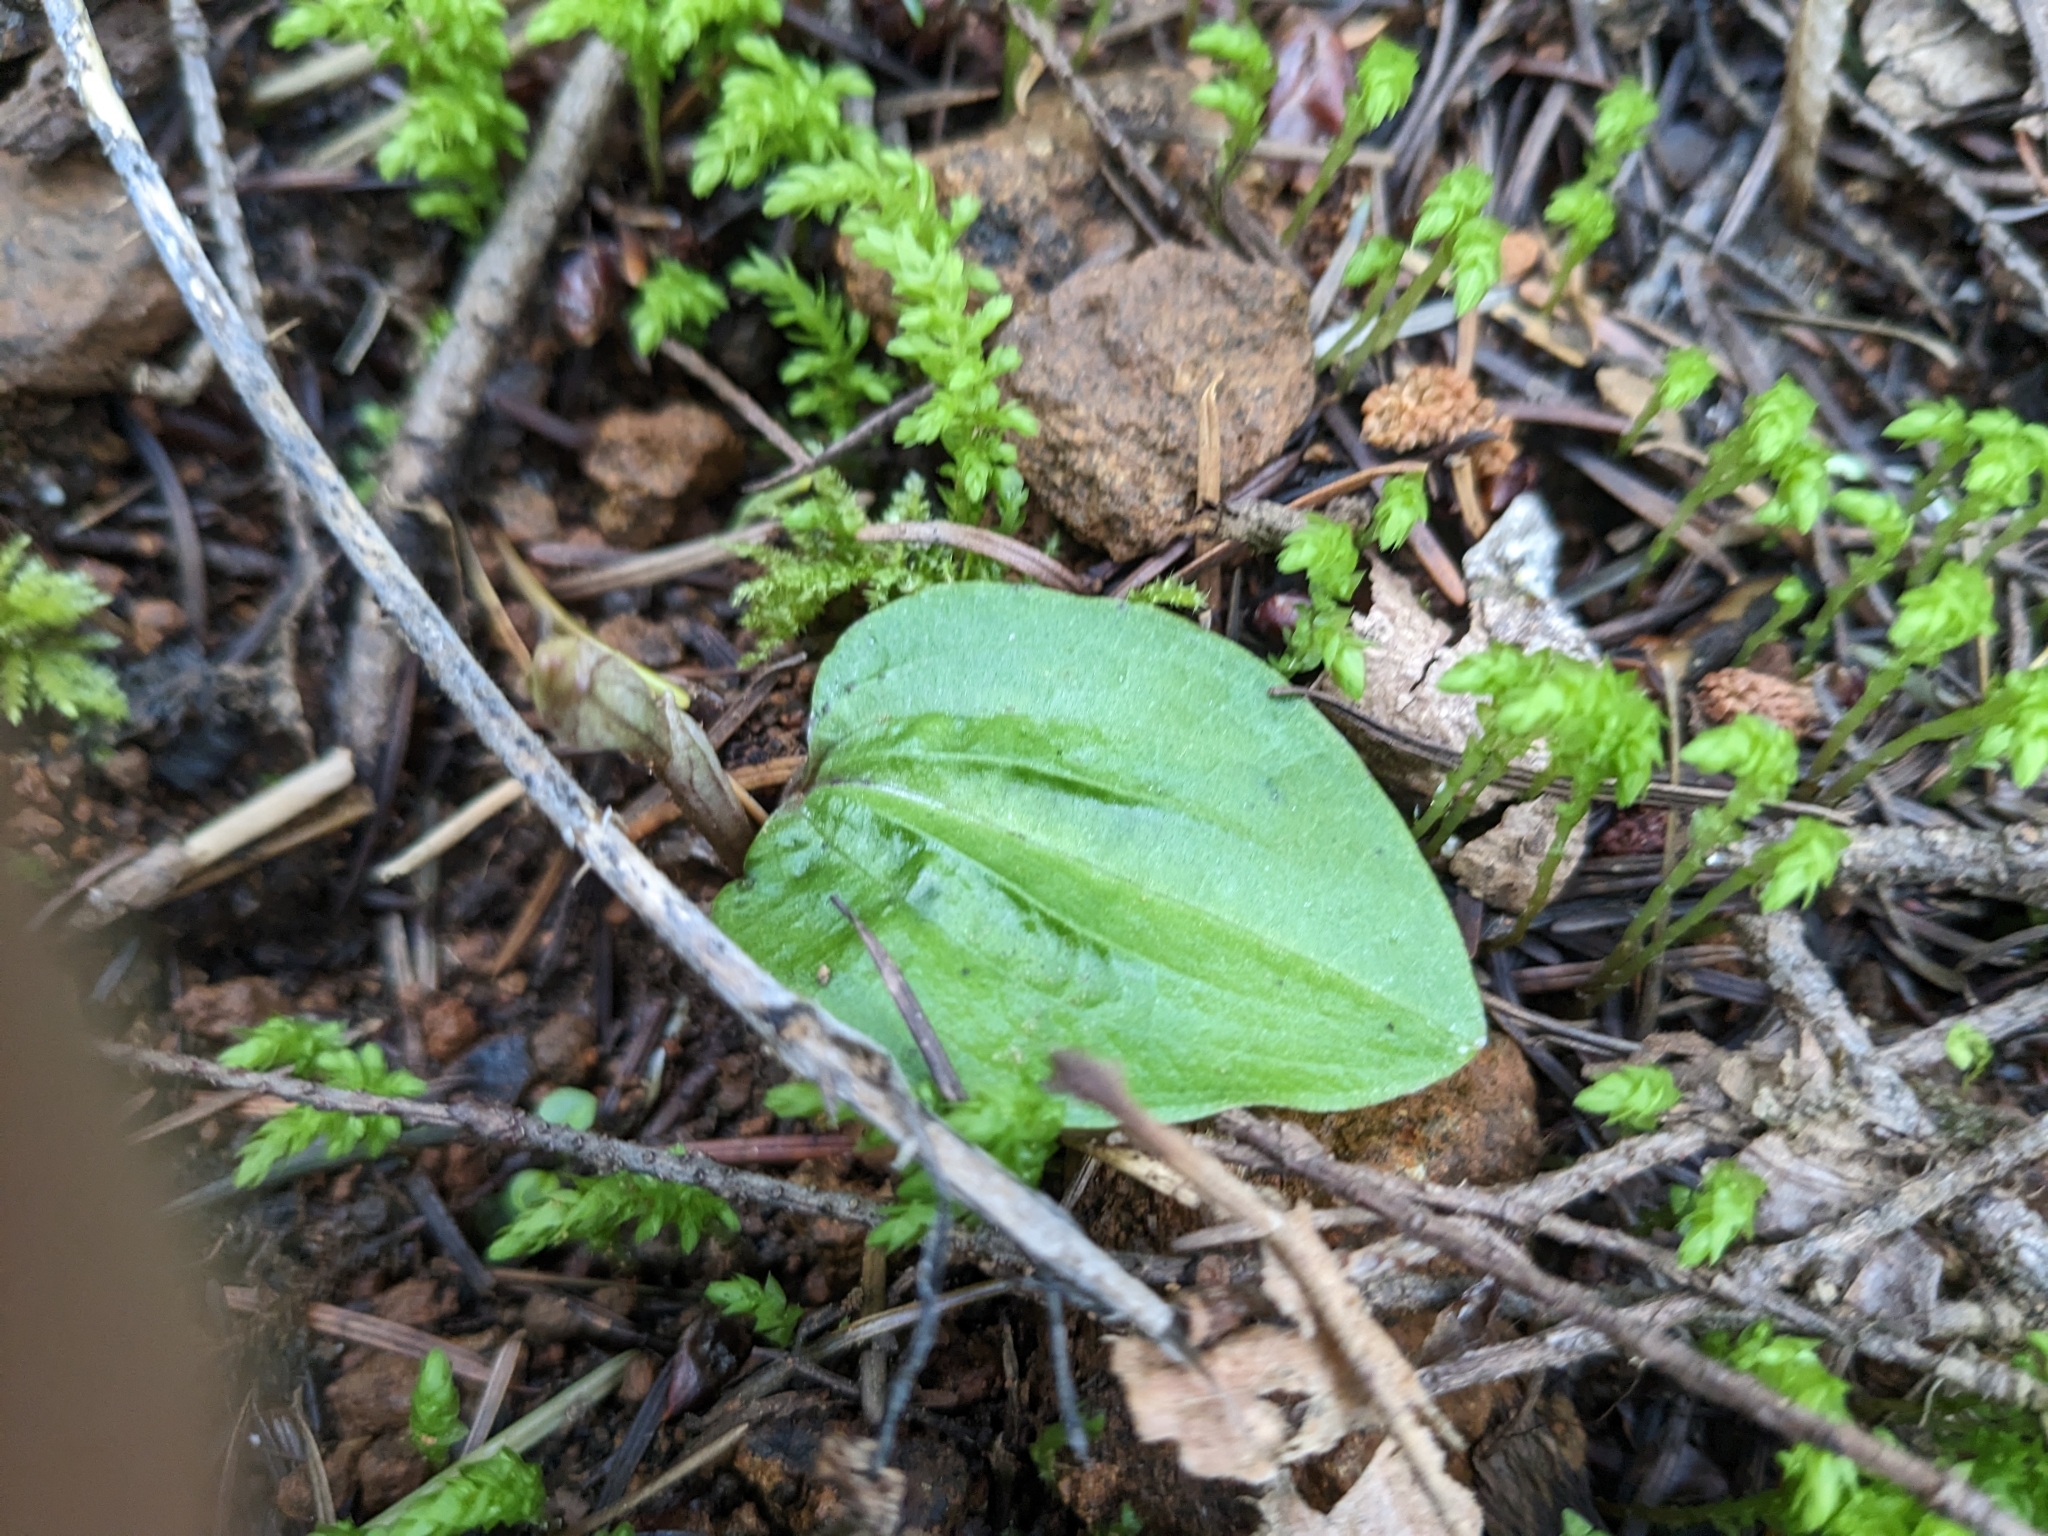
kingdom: Plantae
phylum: Tracheophyta
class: Liliopsida
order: Asparagales
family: Orchidaceae
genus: Calypso
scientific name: Calypso bulbosa
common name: Calypso
